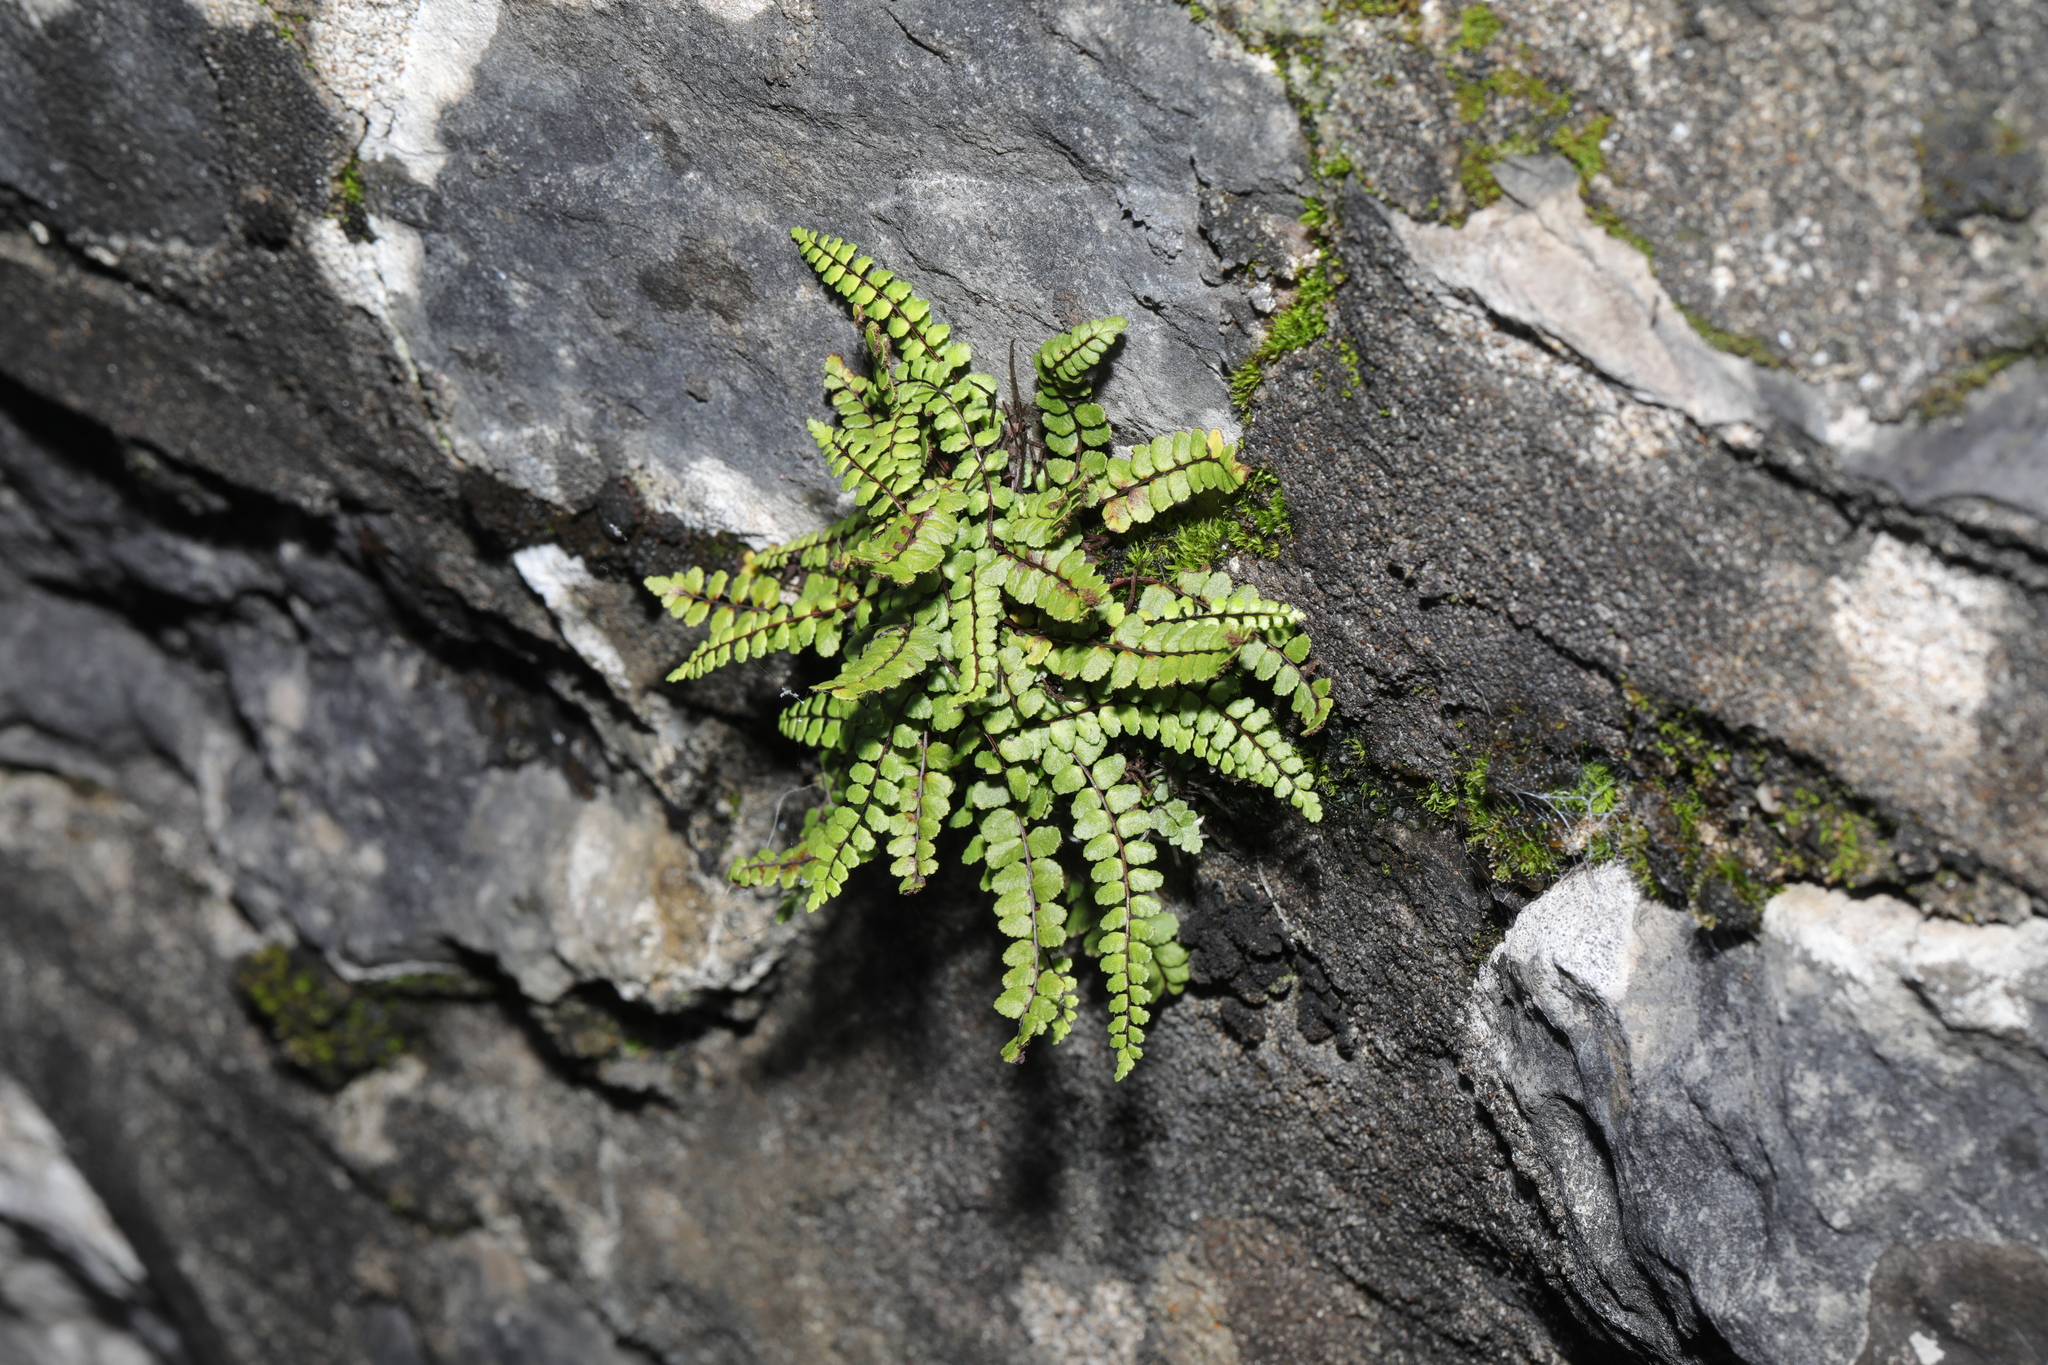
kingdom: Plantae
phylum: Tracheophyta
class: Polypodiopsida
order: Polypodiales
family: Aspleniaceae
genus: Asplenium
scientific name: Asplenium trichomanes
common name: Maidenhair spleenwort
